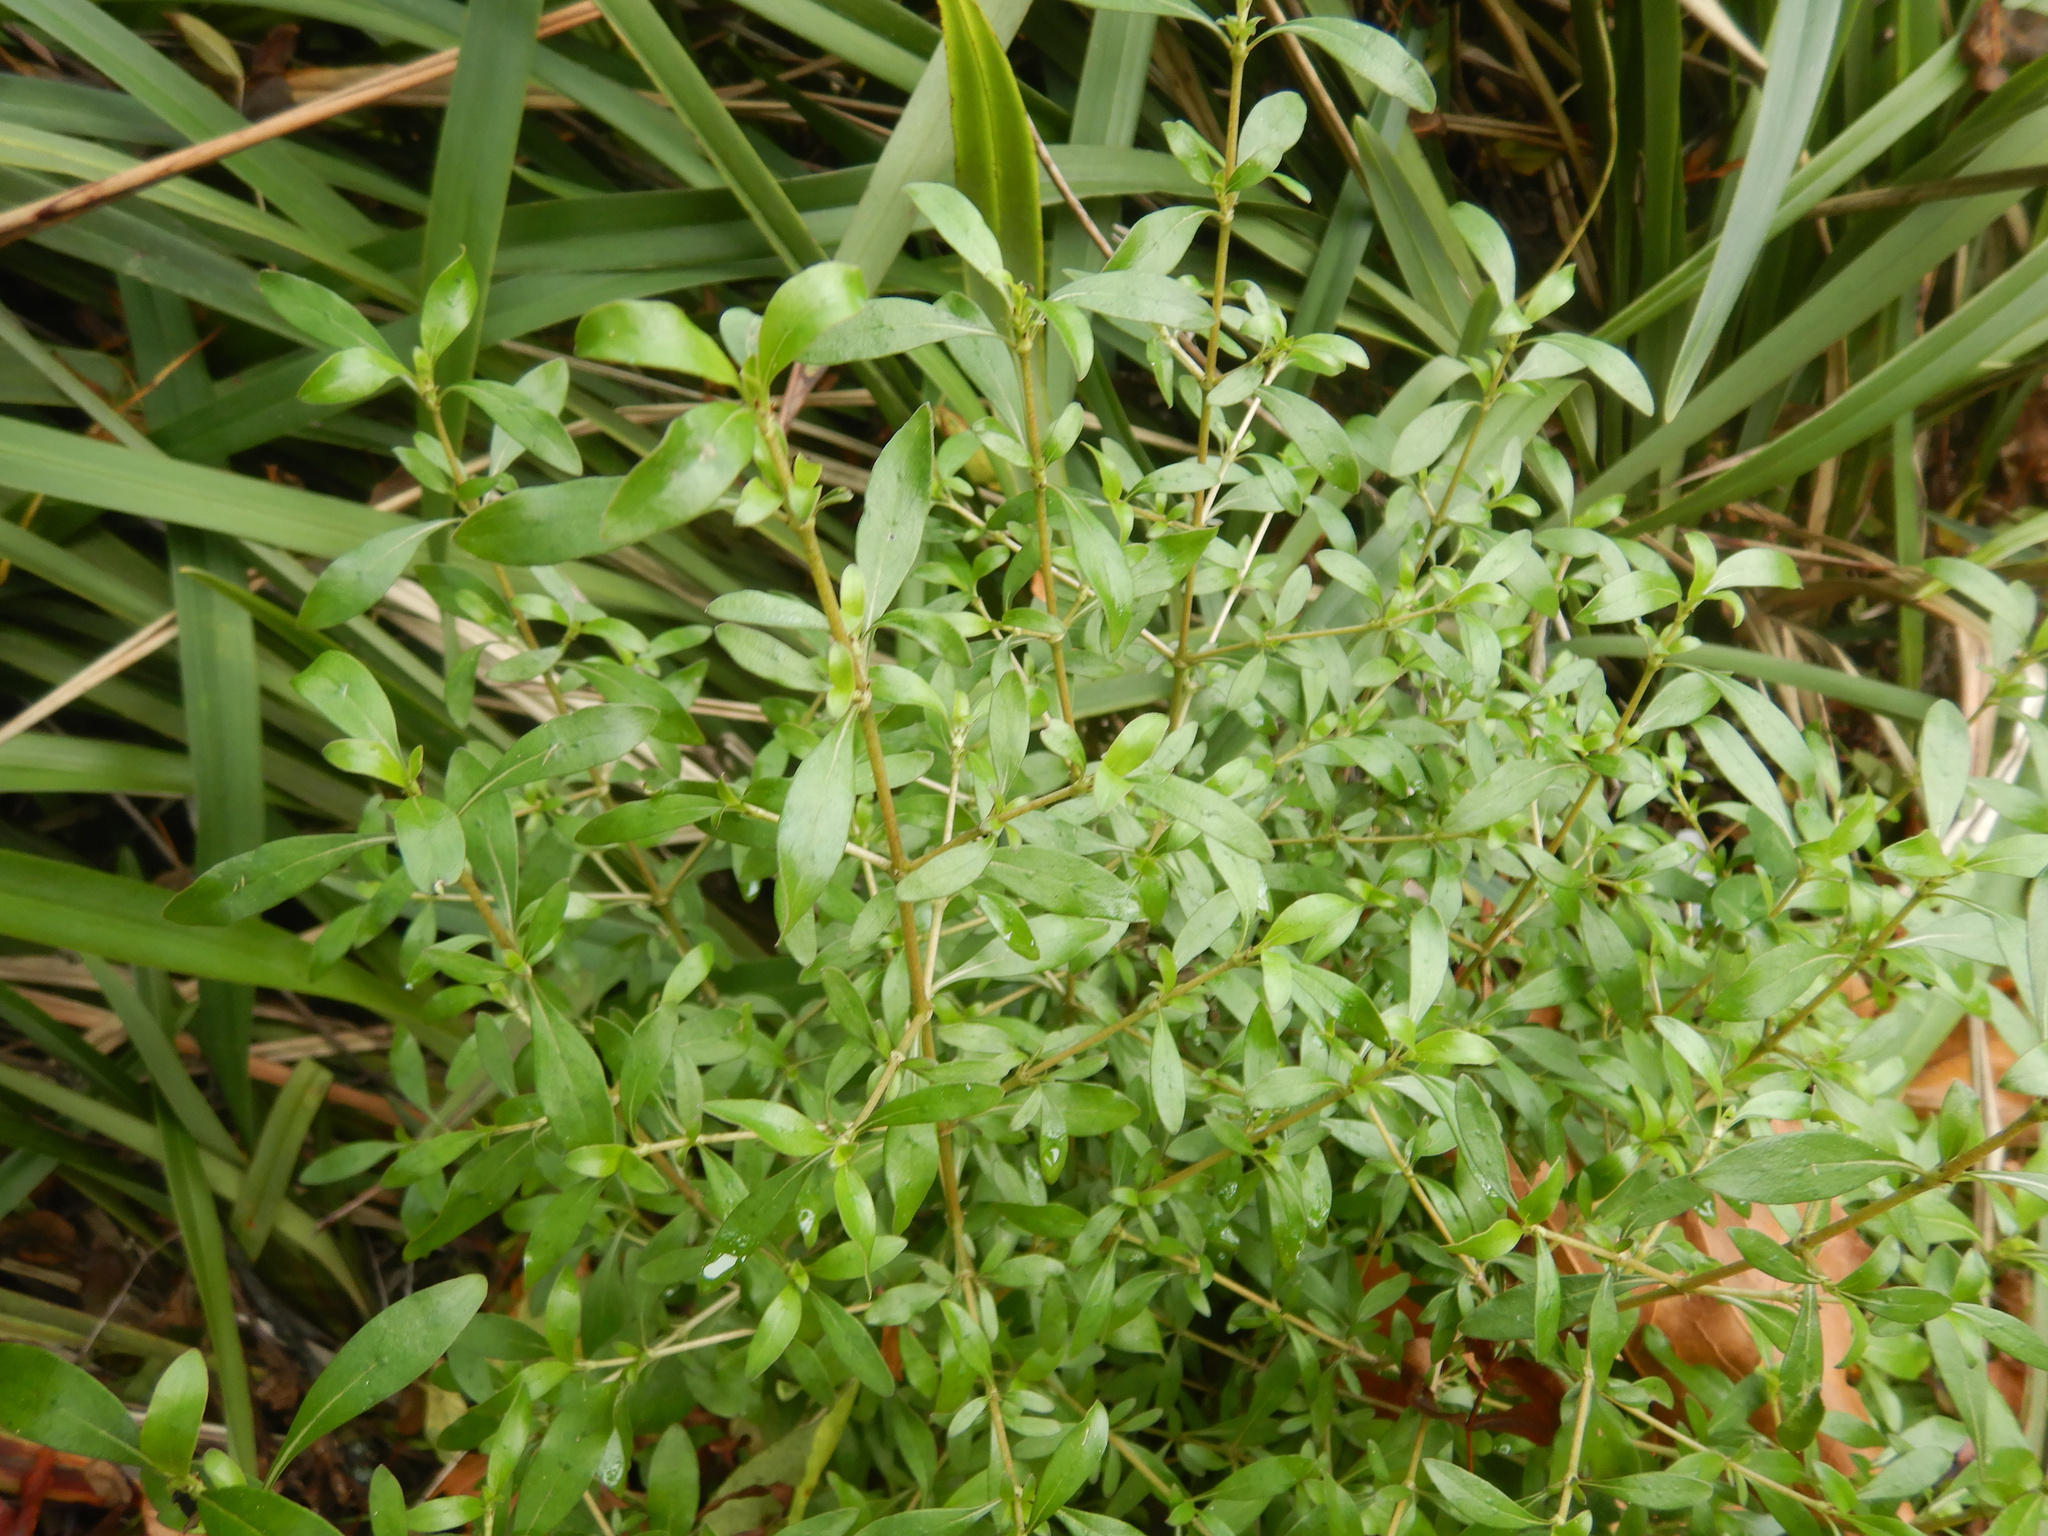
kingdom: Plantae
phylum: Tracheophyta
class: Magnoliopsida
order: Gentianales
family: Rubiaceae
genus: Coprosma
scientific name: Coprosma cunninghamii
